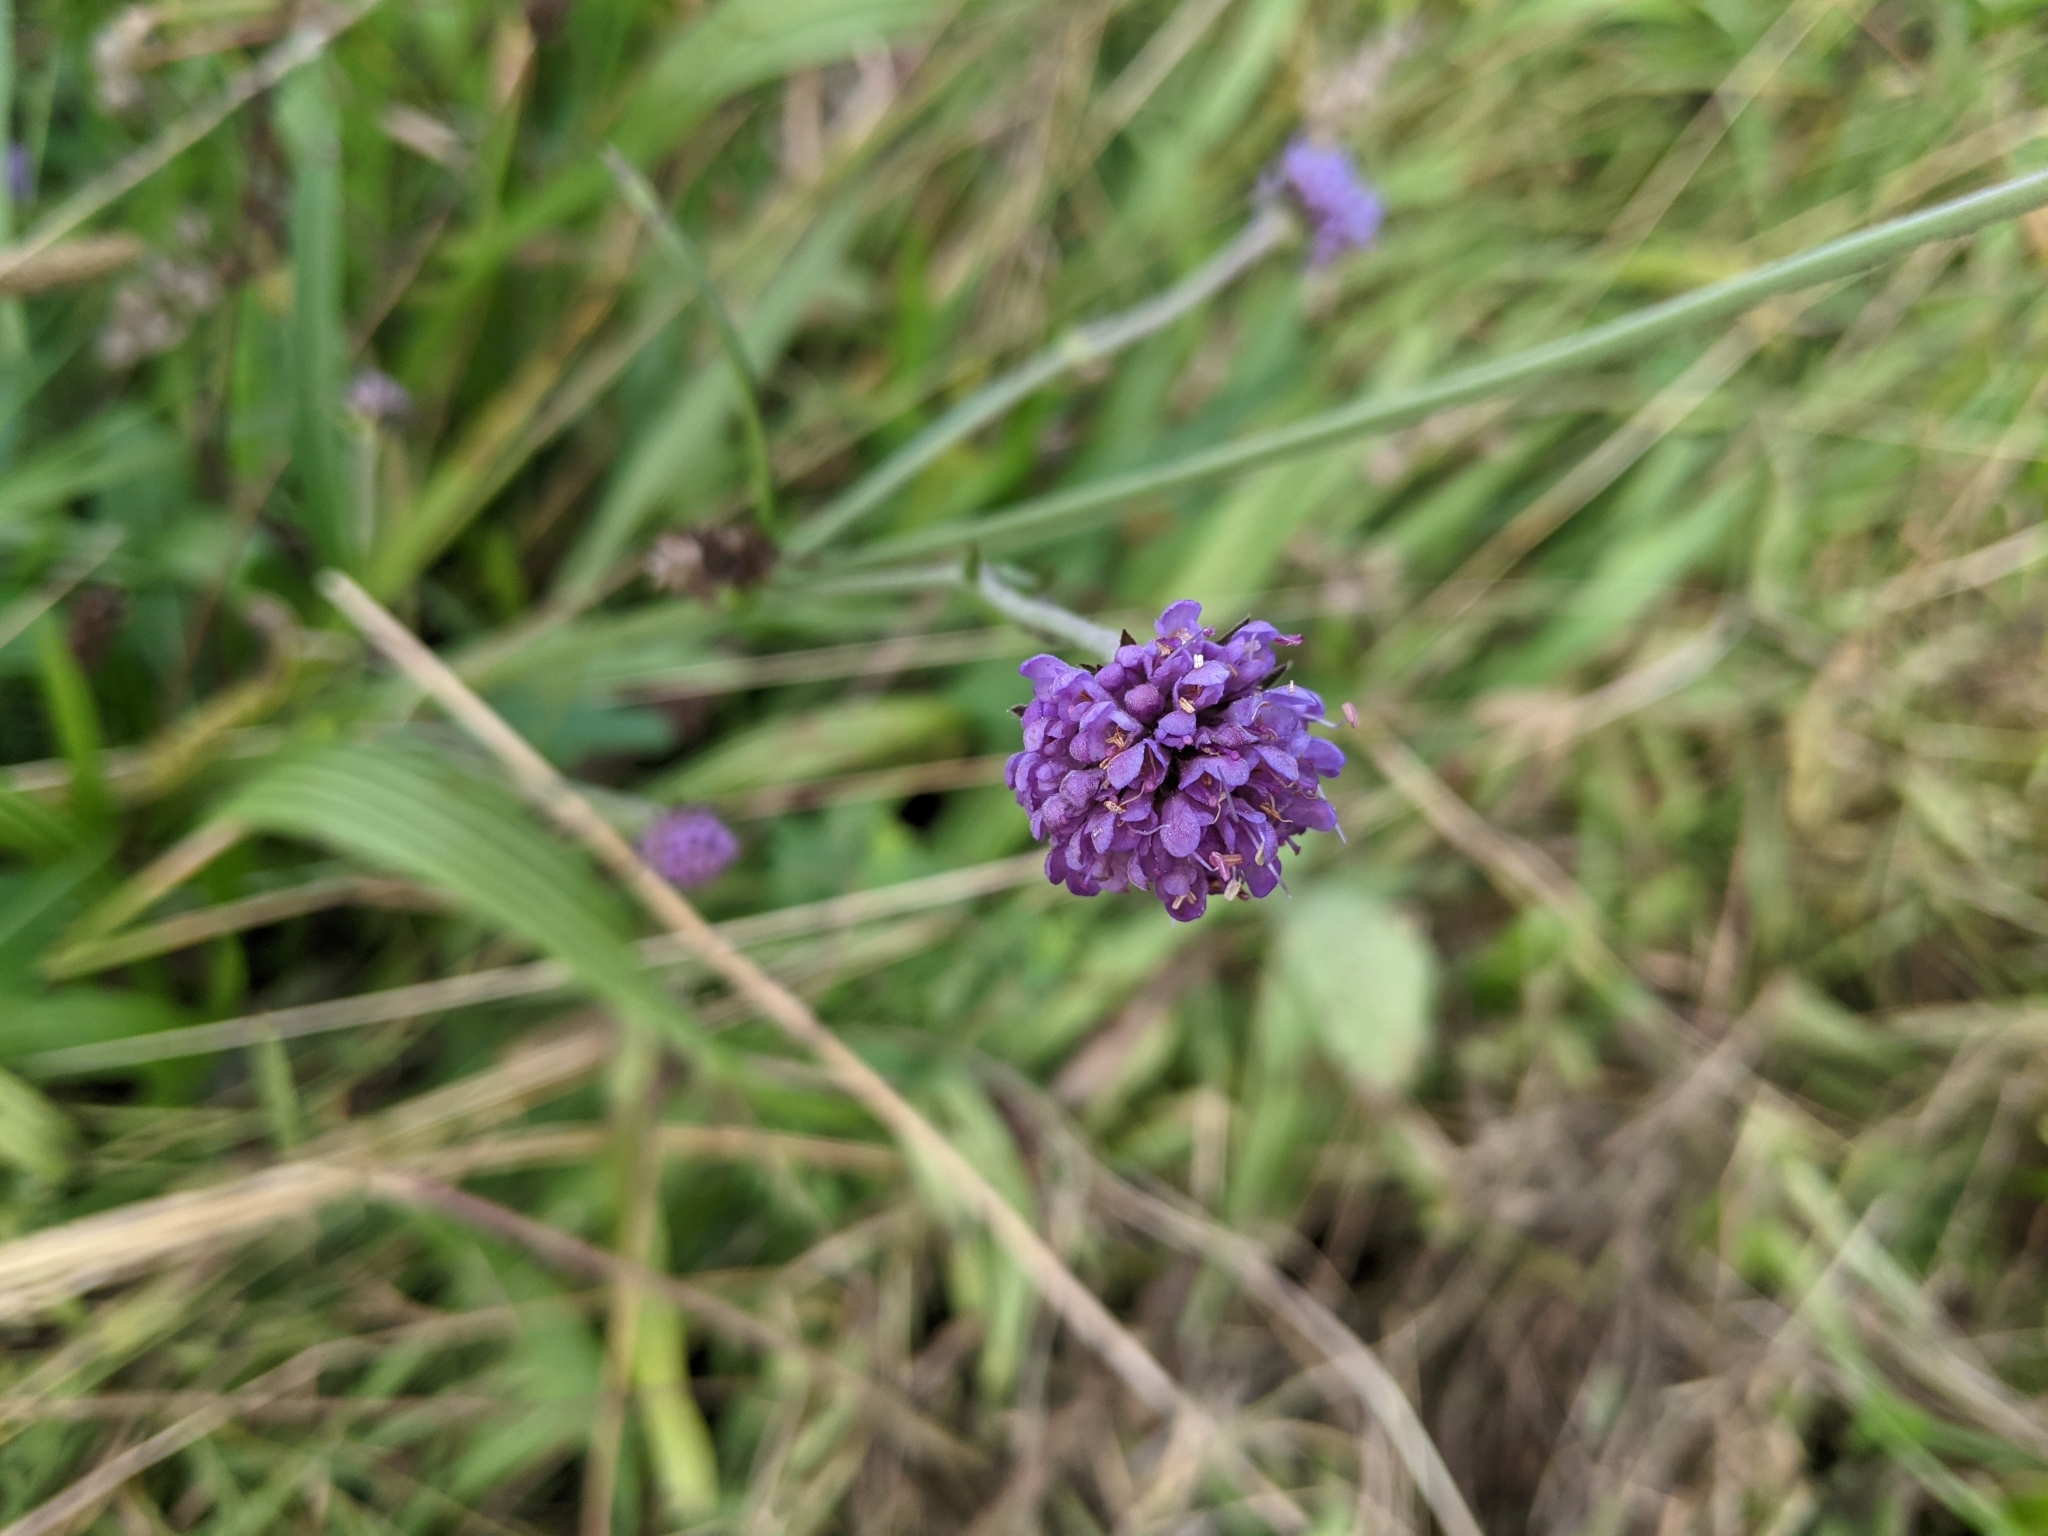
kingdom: Plantae
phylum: Tracheophyta
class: Magnoliopsida
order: Dipsacales
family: Caprifoliaceae
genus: Succisa
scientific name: Succisa pratensis
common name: Devil's-bit
